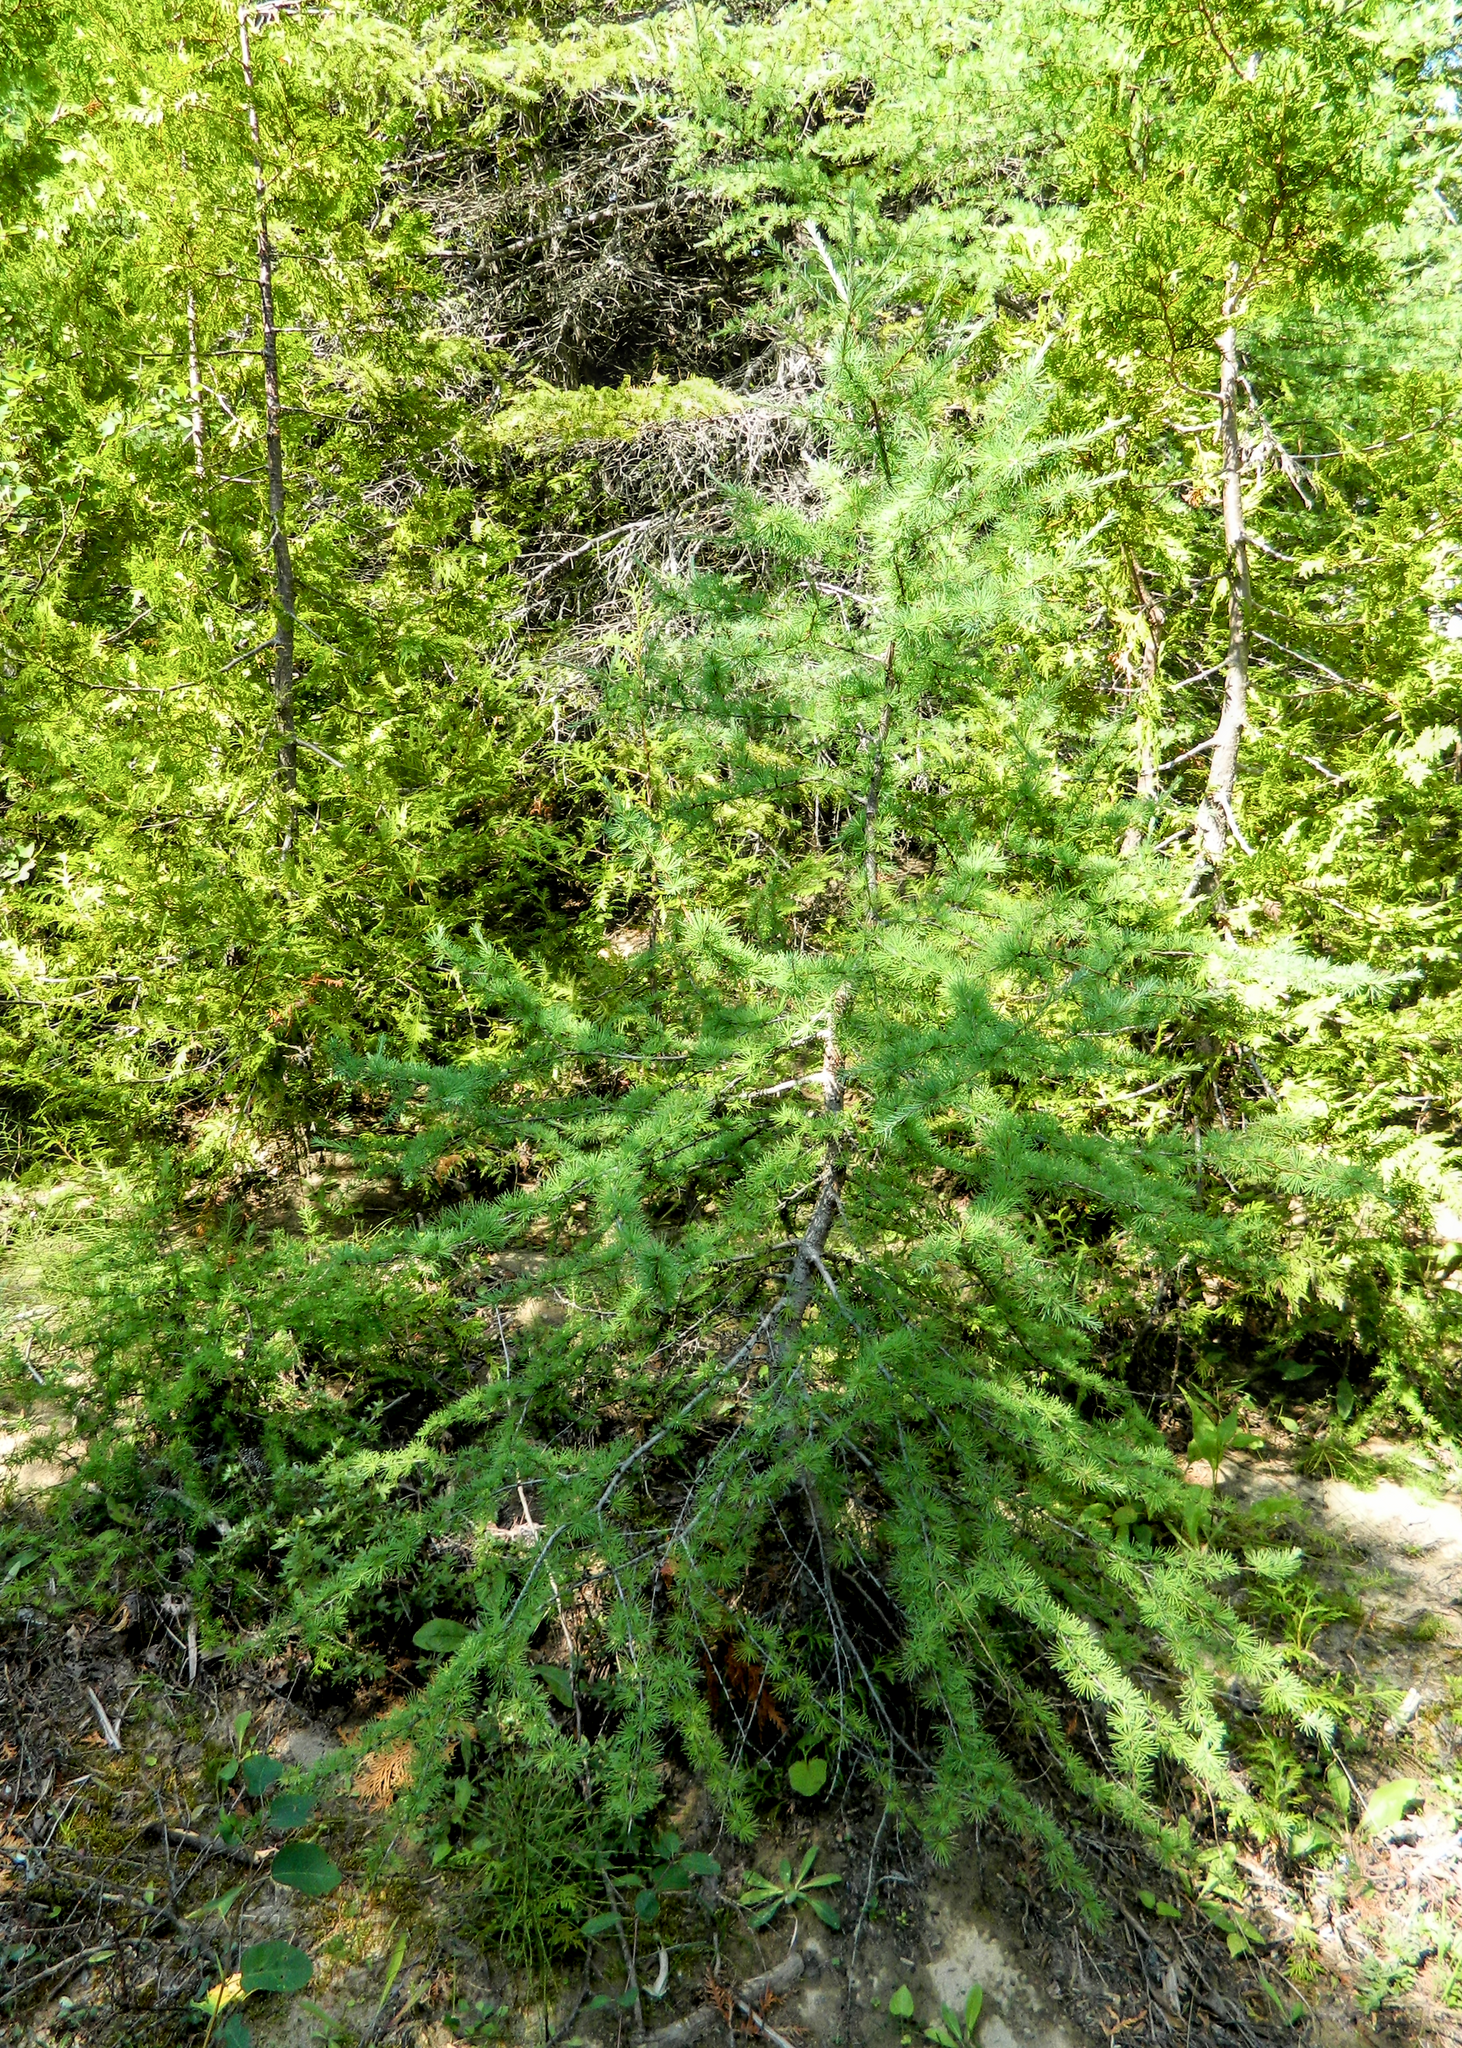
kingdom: Plantae
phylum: Tracheophyta
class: Pinopsida
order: Pinales
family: Pinaceae
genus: Larix
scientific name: Larix laricina
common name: American larch
